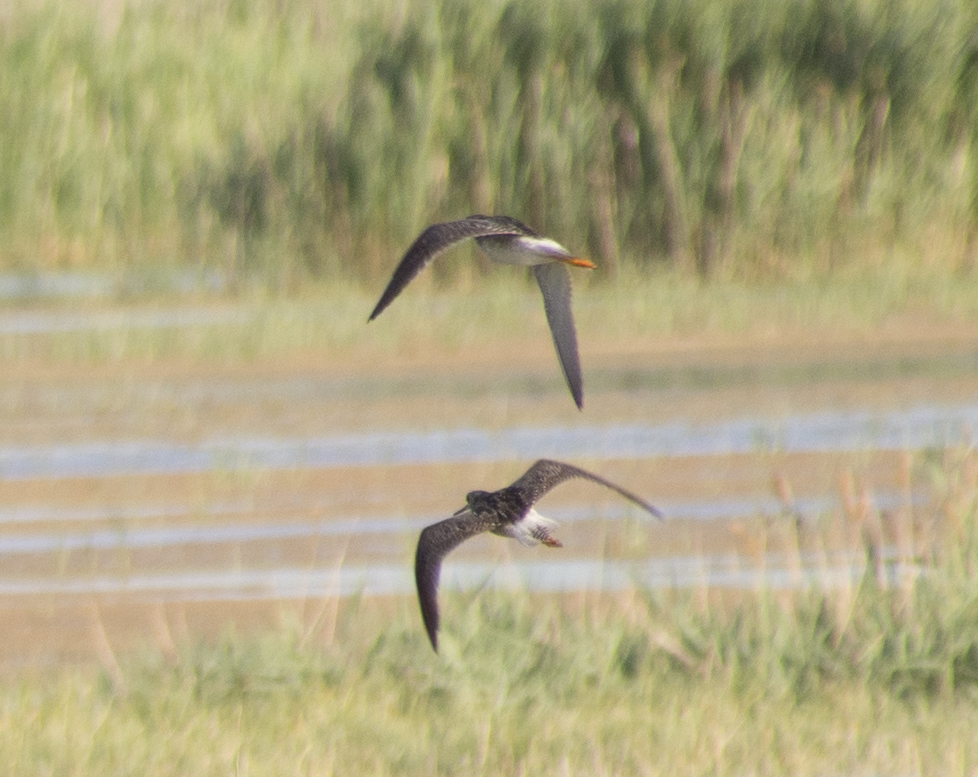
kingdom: Animalia
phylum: Chordata
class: Aves
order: Charadriiformes
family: Scolopacidae
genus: Tringa
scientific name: Tringa melanoleuca
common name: Greater yellowlegs
